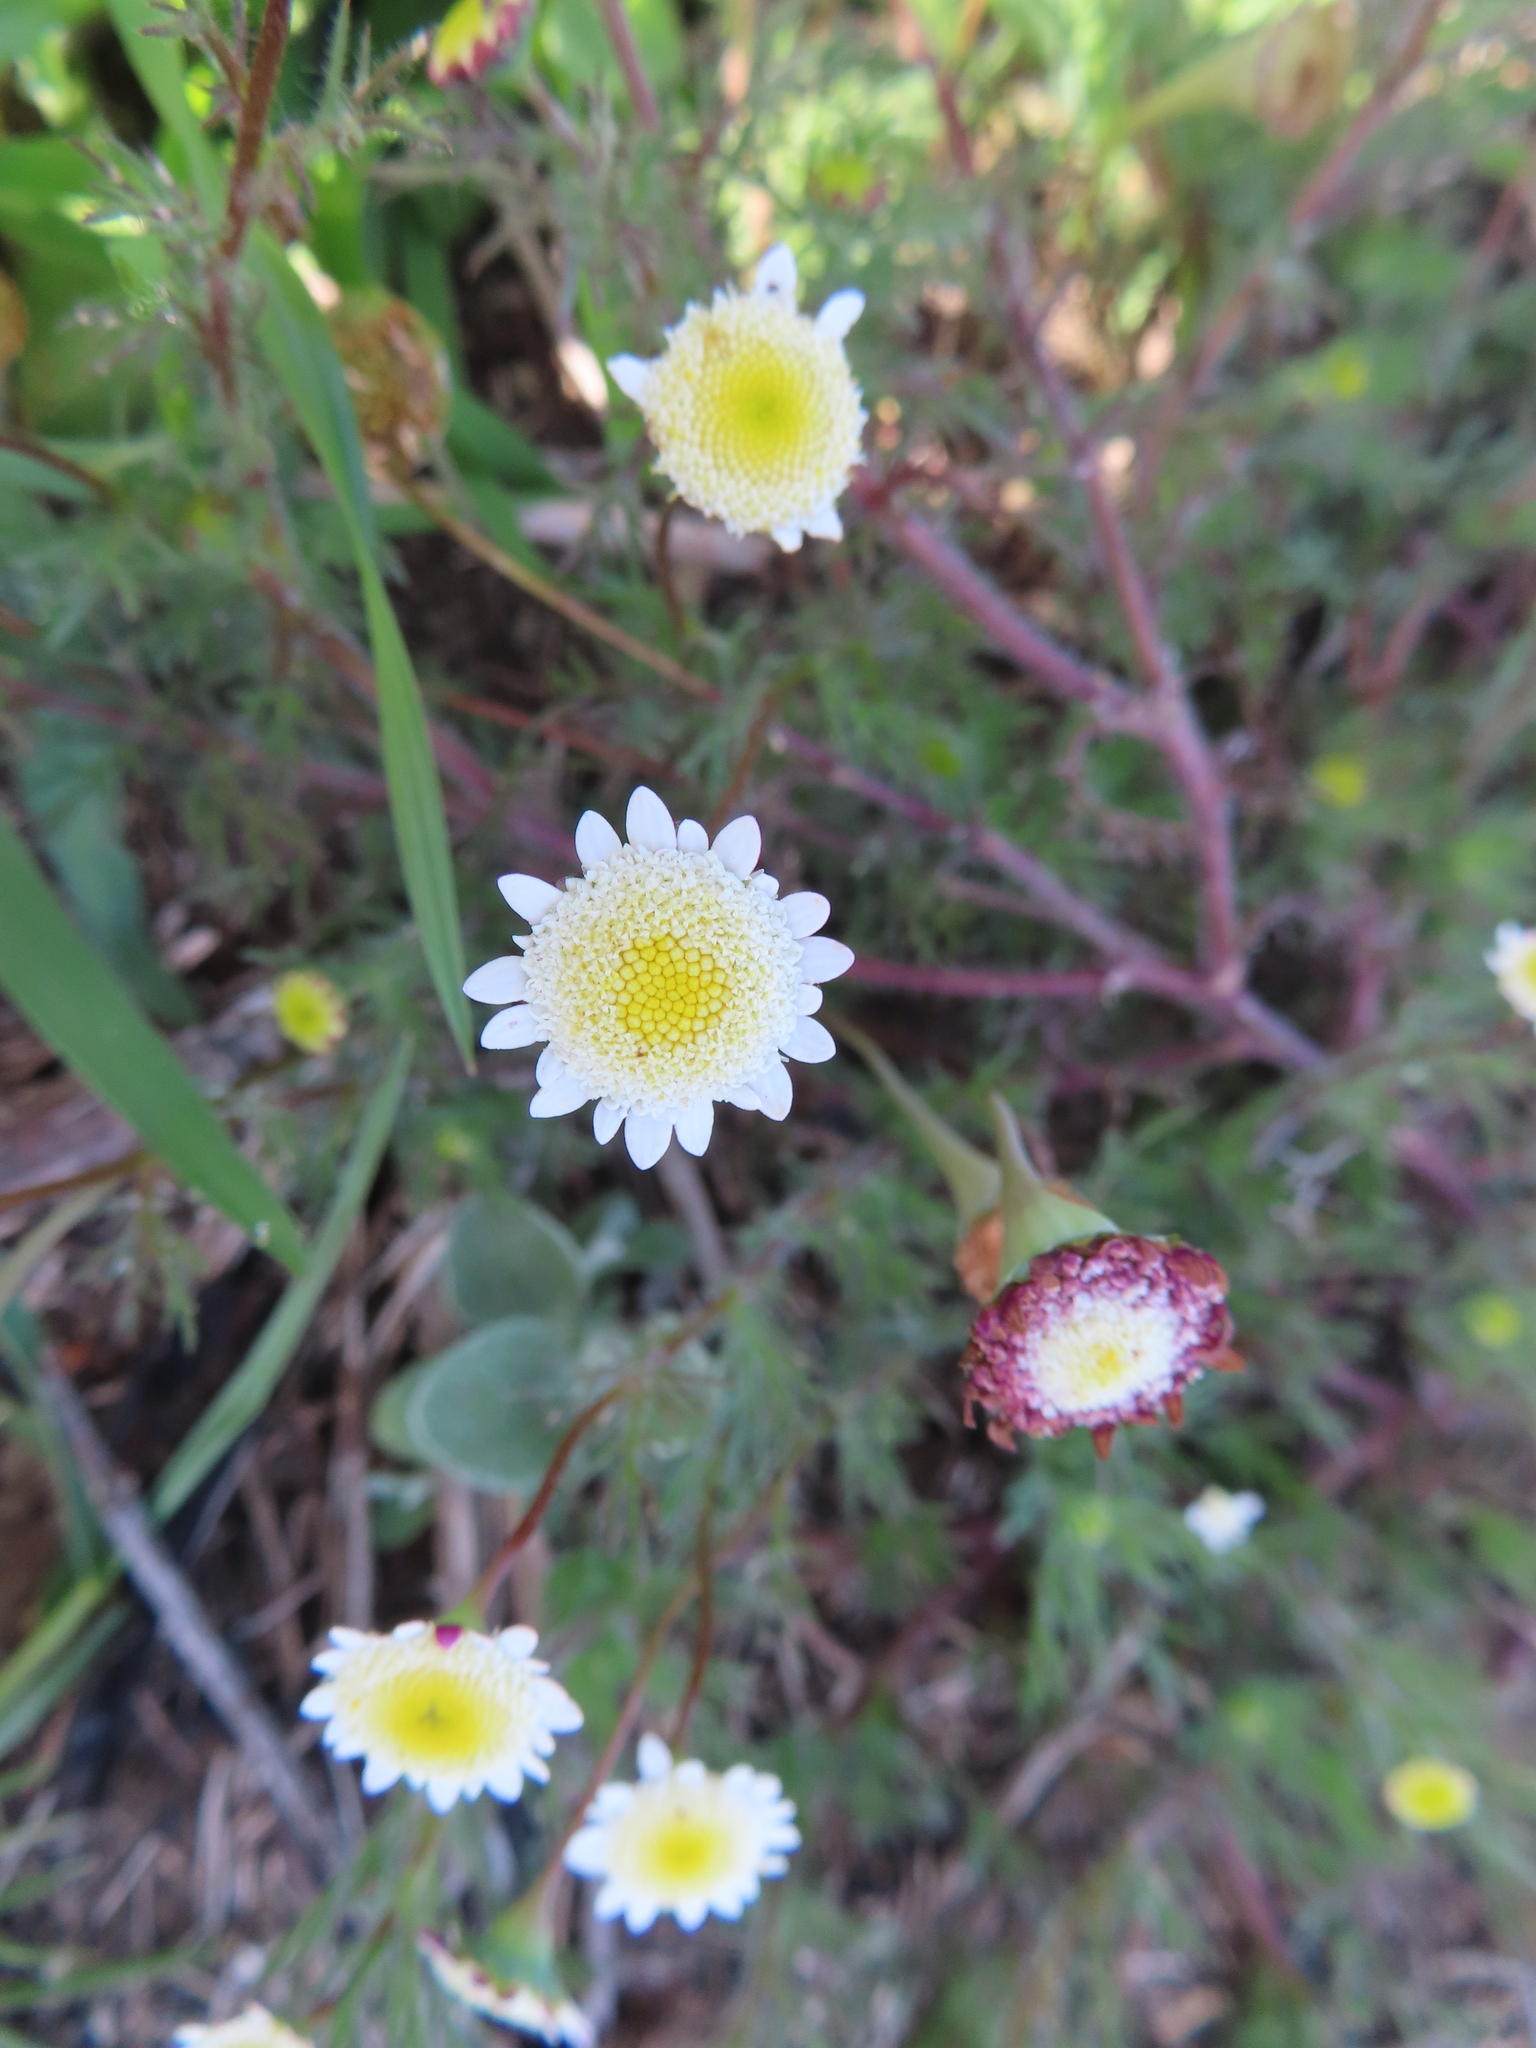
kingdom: Plantae
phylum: Tracheophyta
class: Magnoliopsida
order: Asterales
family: Asteraceae
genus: Cotula
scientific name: Cotula turbinata
